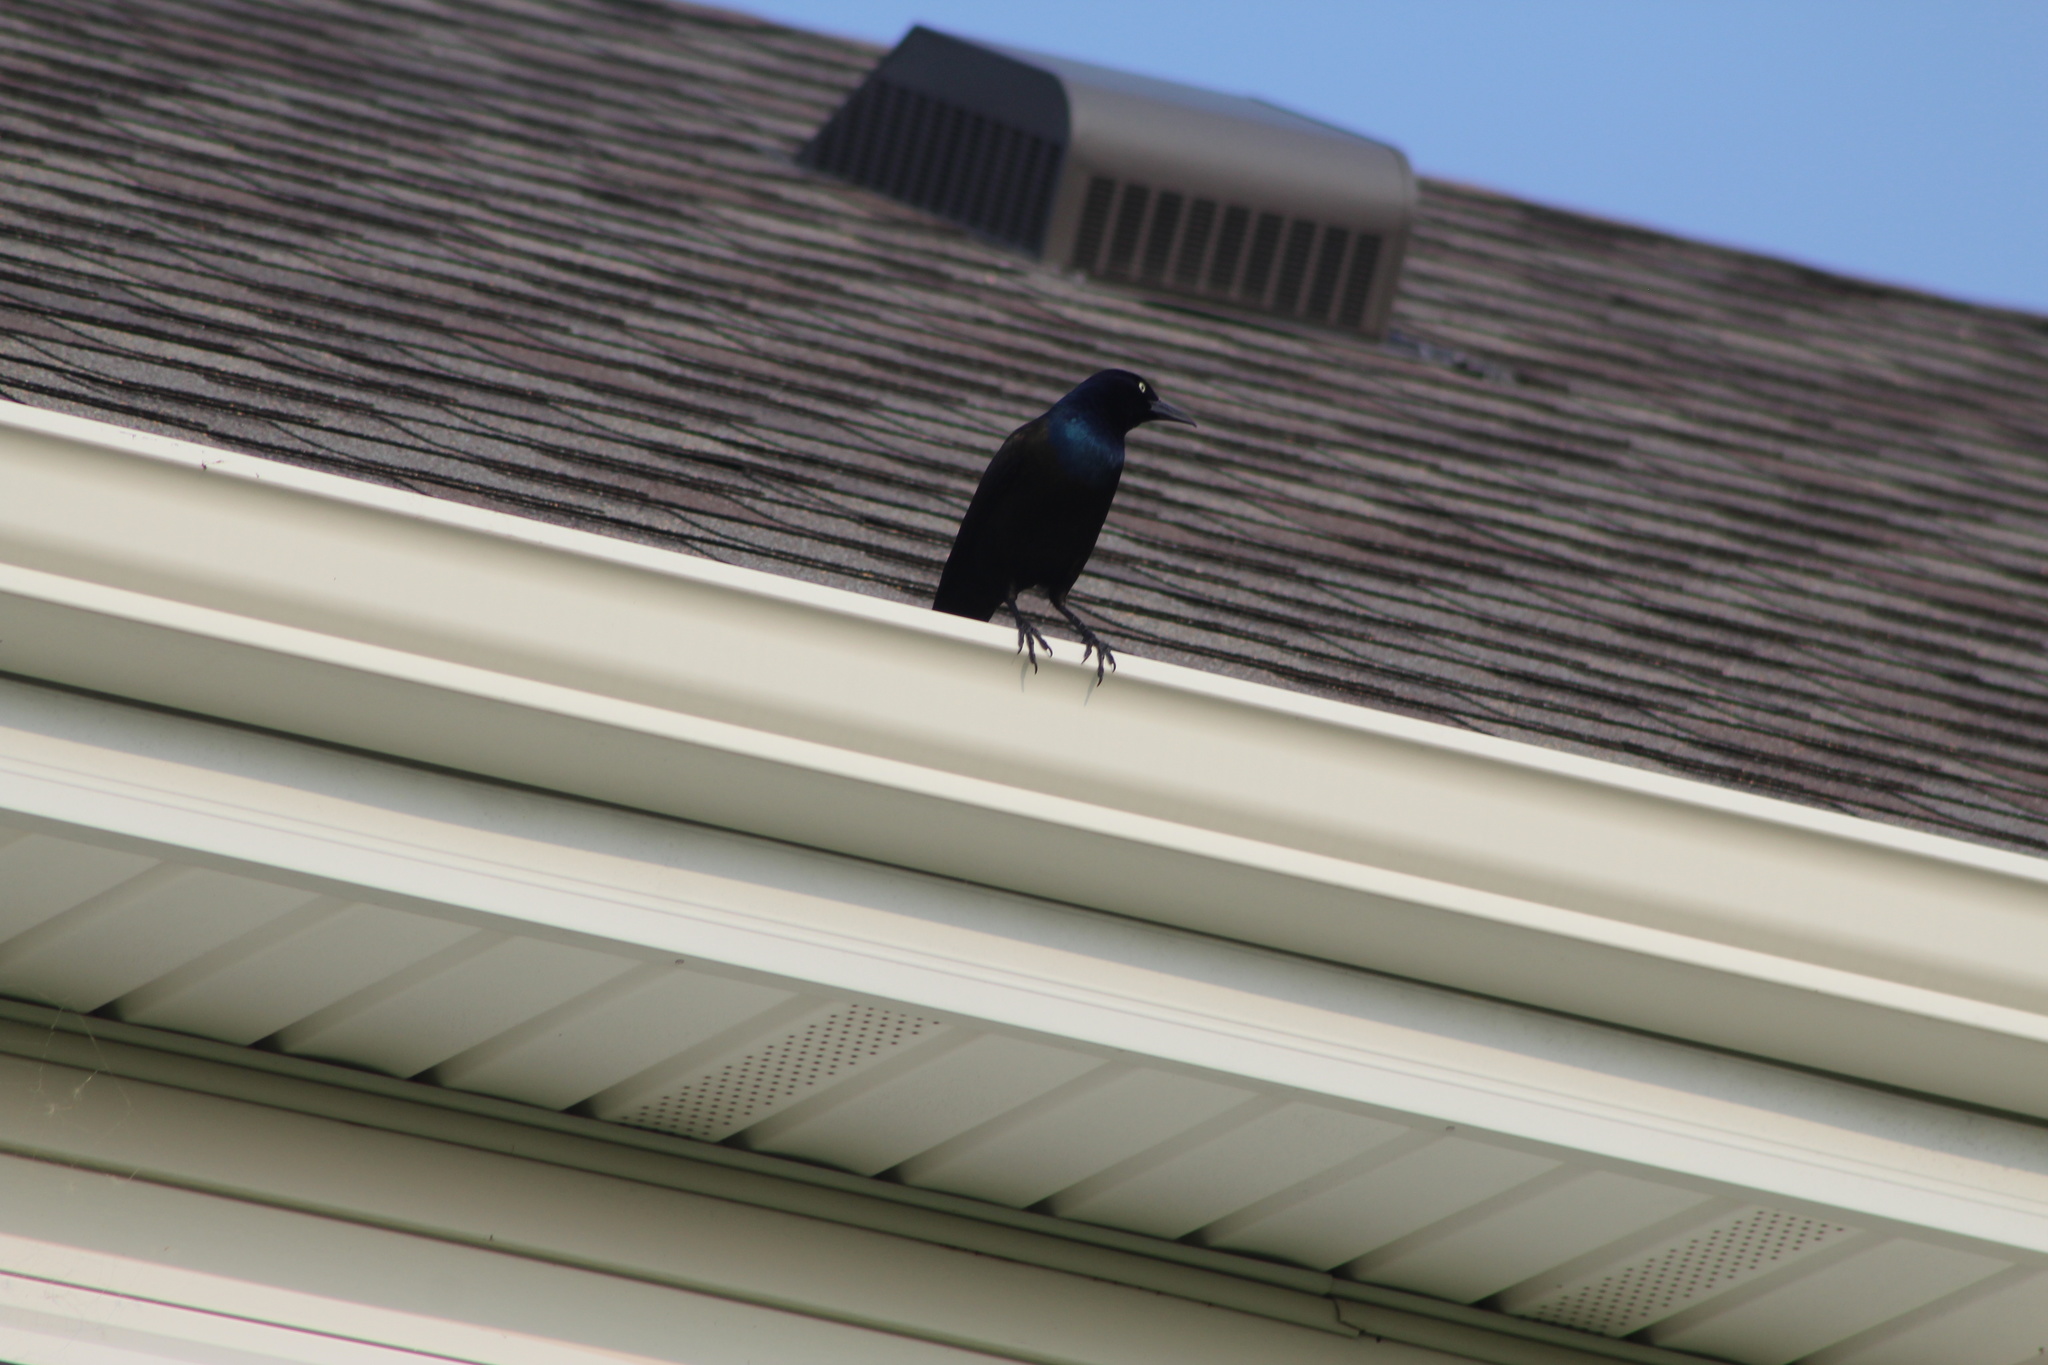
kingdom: Animalia
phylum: Chordata
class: Aves
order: Passeriformes
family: Icteridae
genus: Quiscalus
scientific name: Quiscalus quiscula
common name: Common grackle
